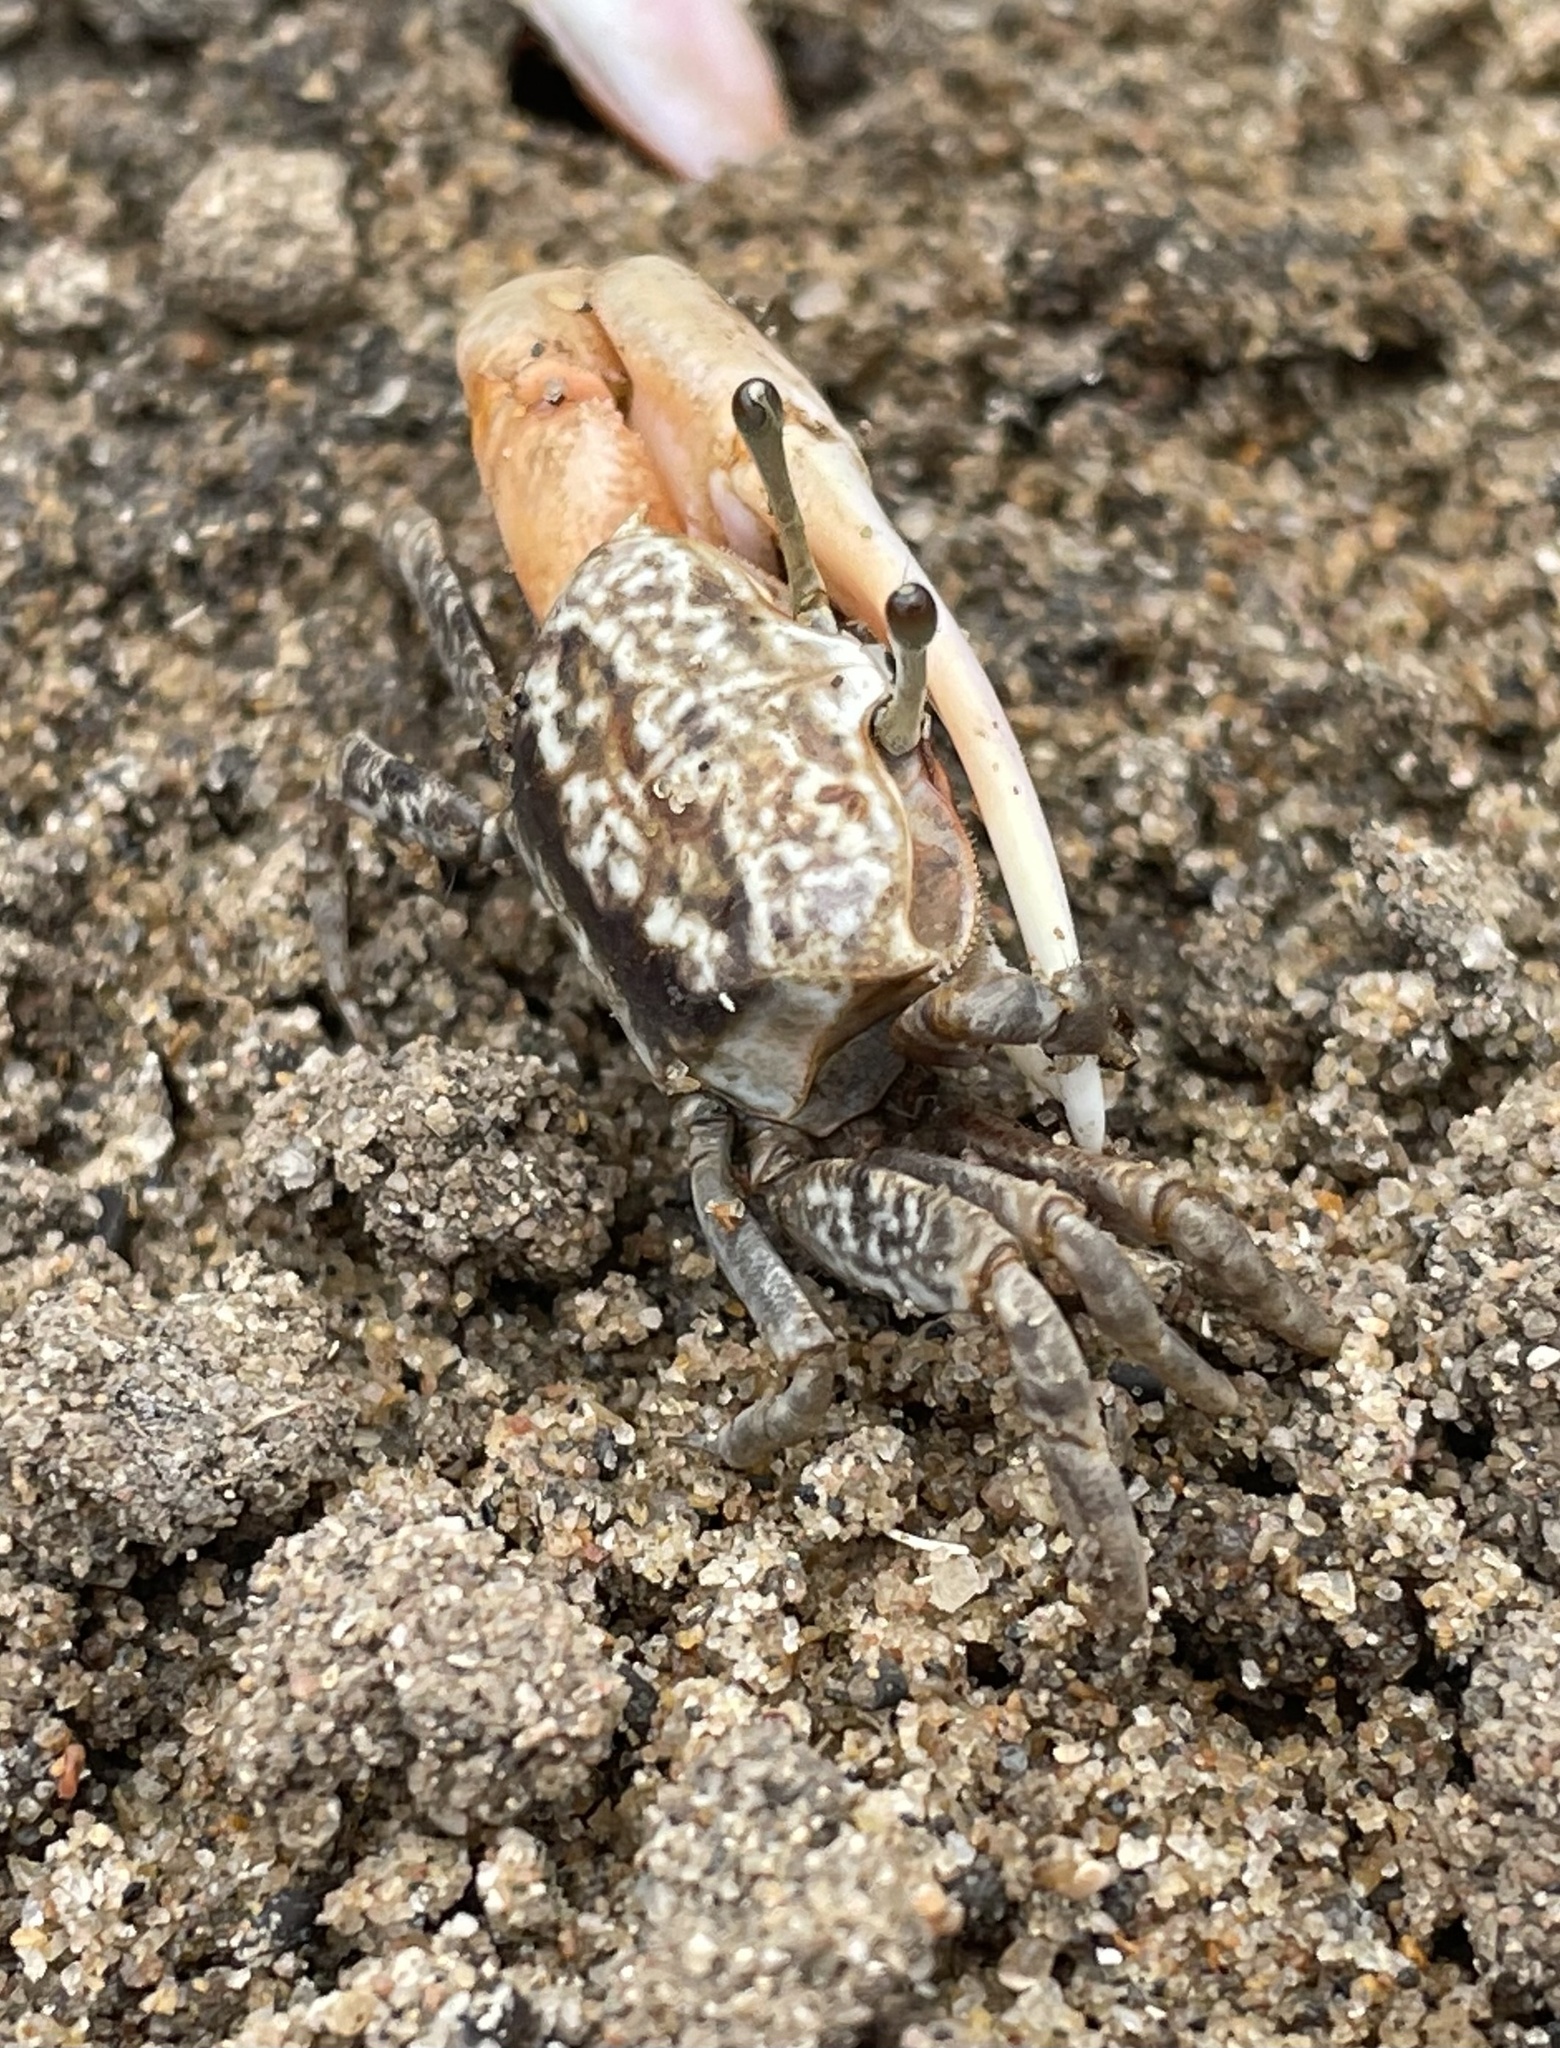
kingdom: Animalia
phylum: Arthropoda
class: Malacostraca
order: Decapoda
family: Ocypodidae
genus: Austruca
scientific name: Austruca occidentalis
